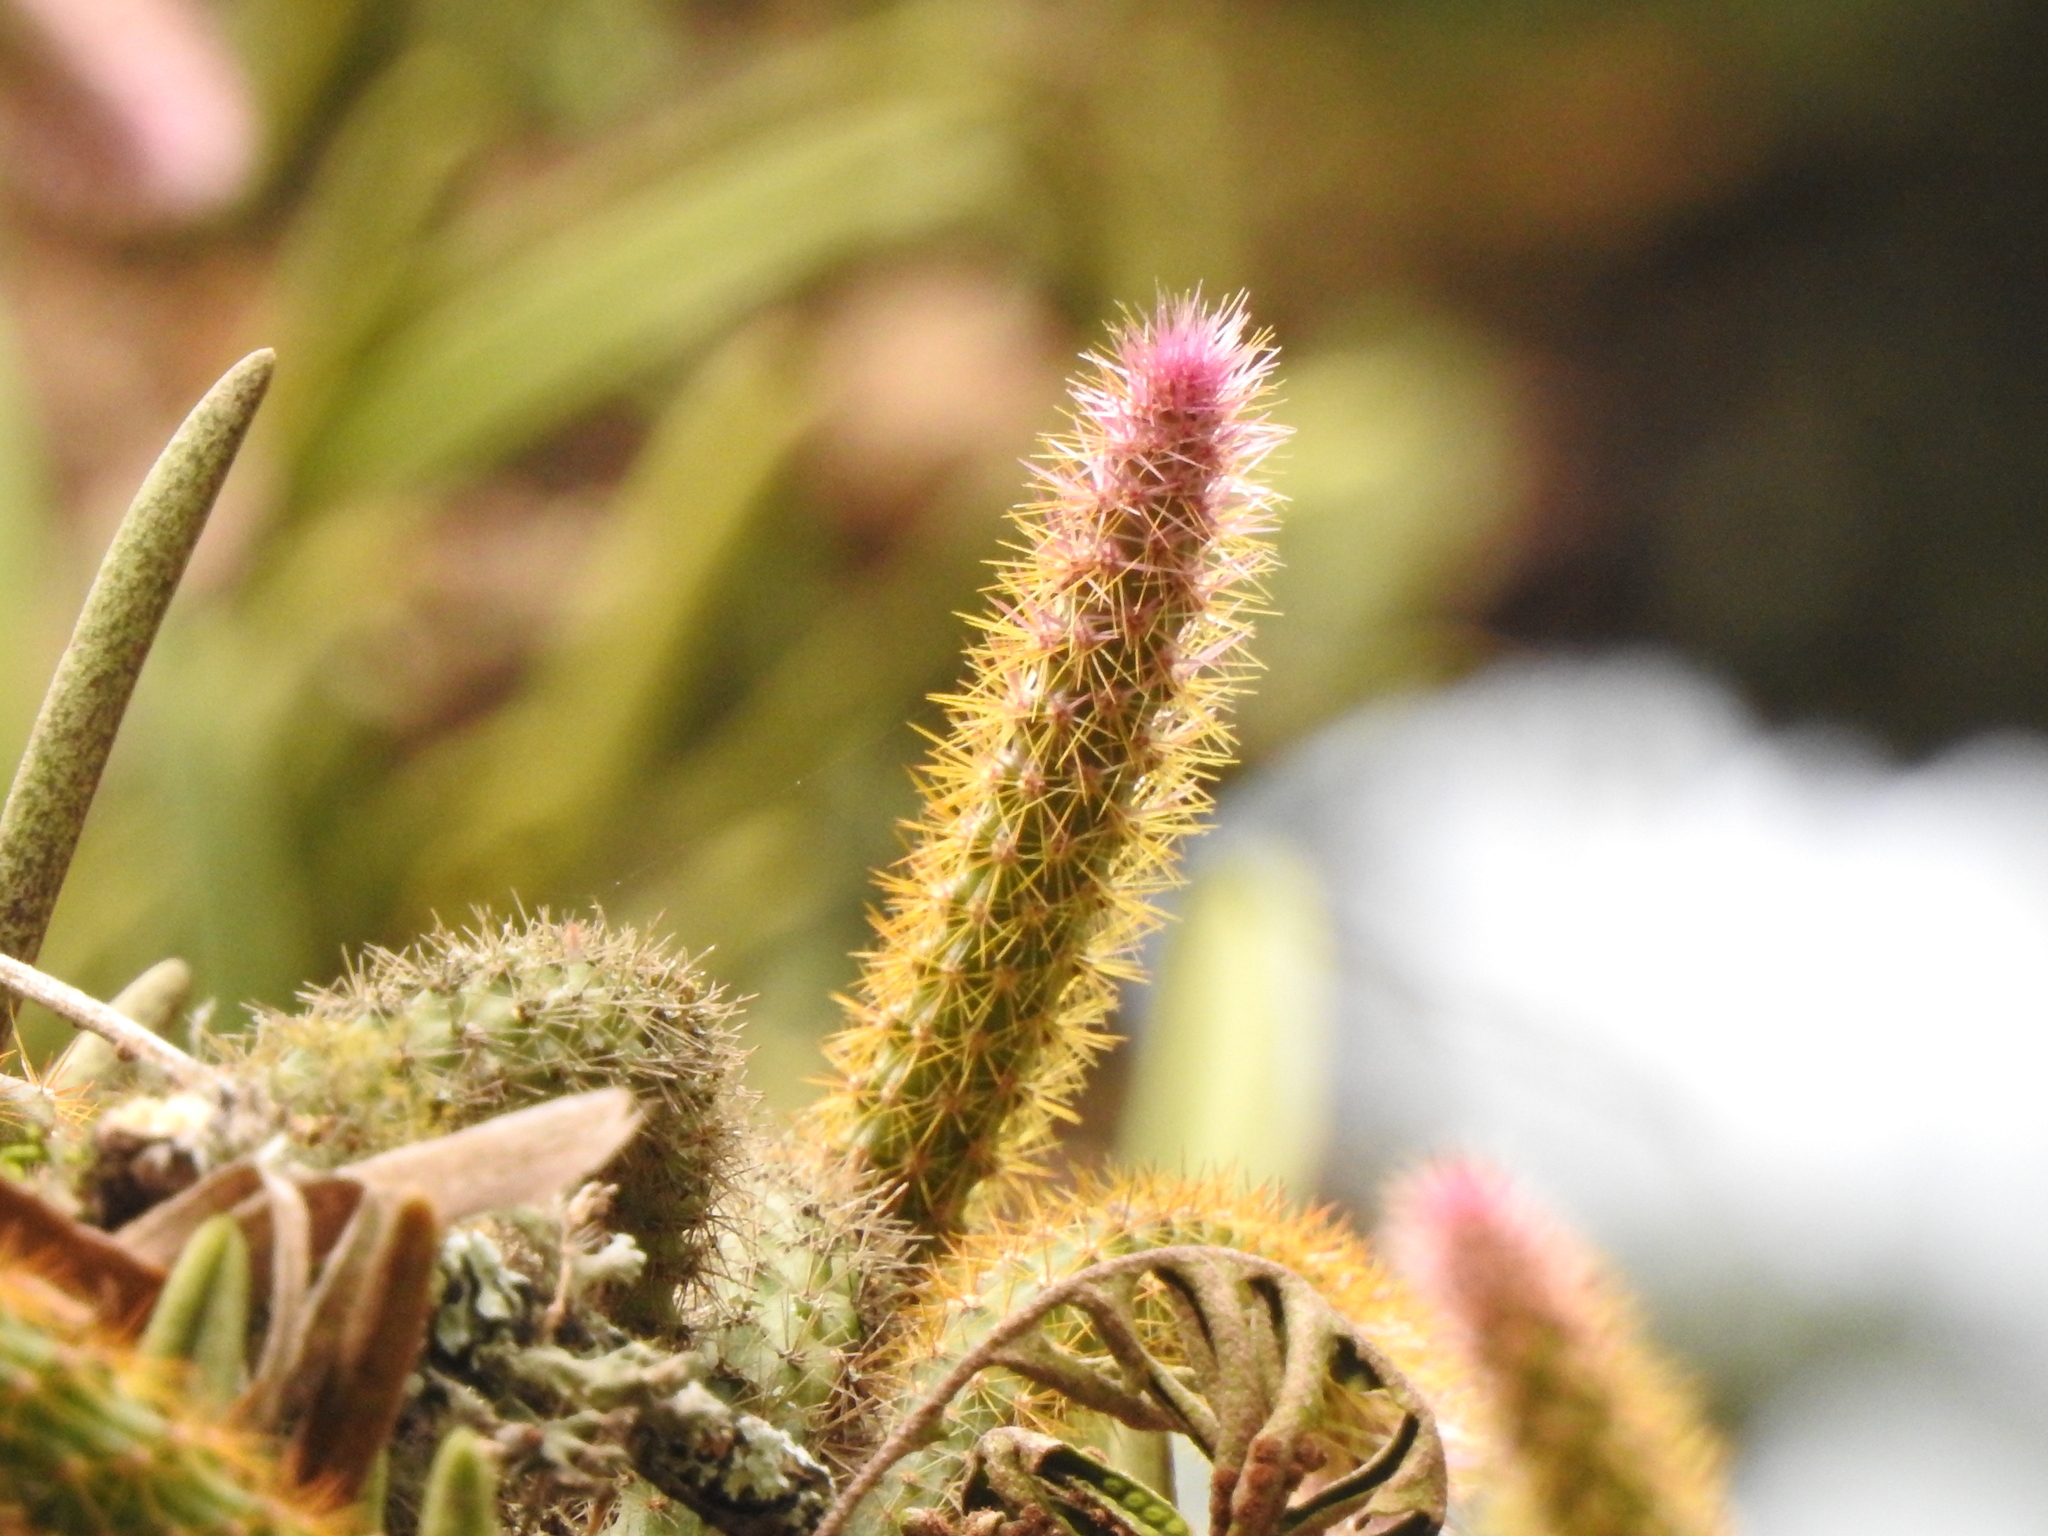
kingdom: Plantae
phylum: Tracheophyta
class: Magnoliopsida
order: Caryophyllales
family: Cactaceae
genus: Aporocactus
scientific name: Aporocactus flagelliformis
